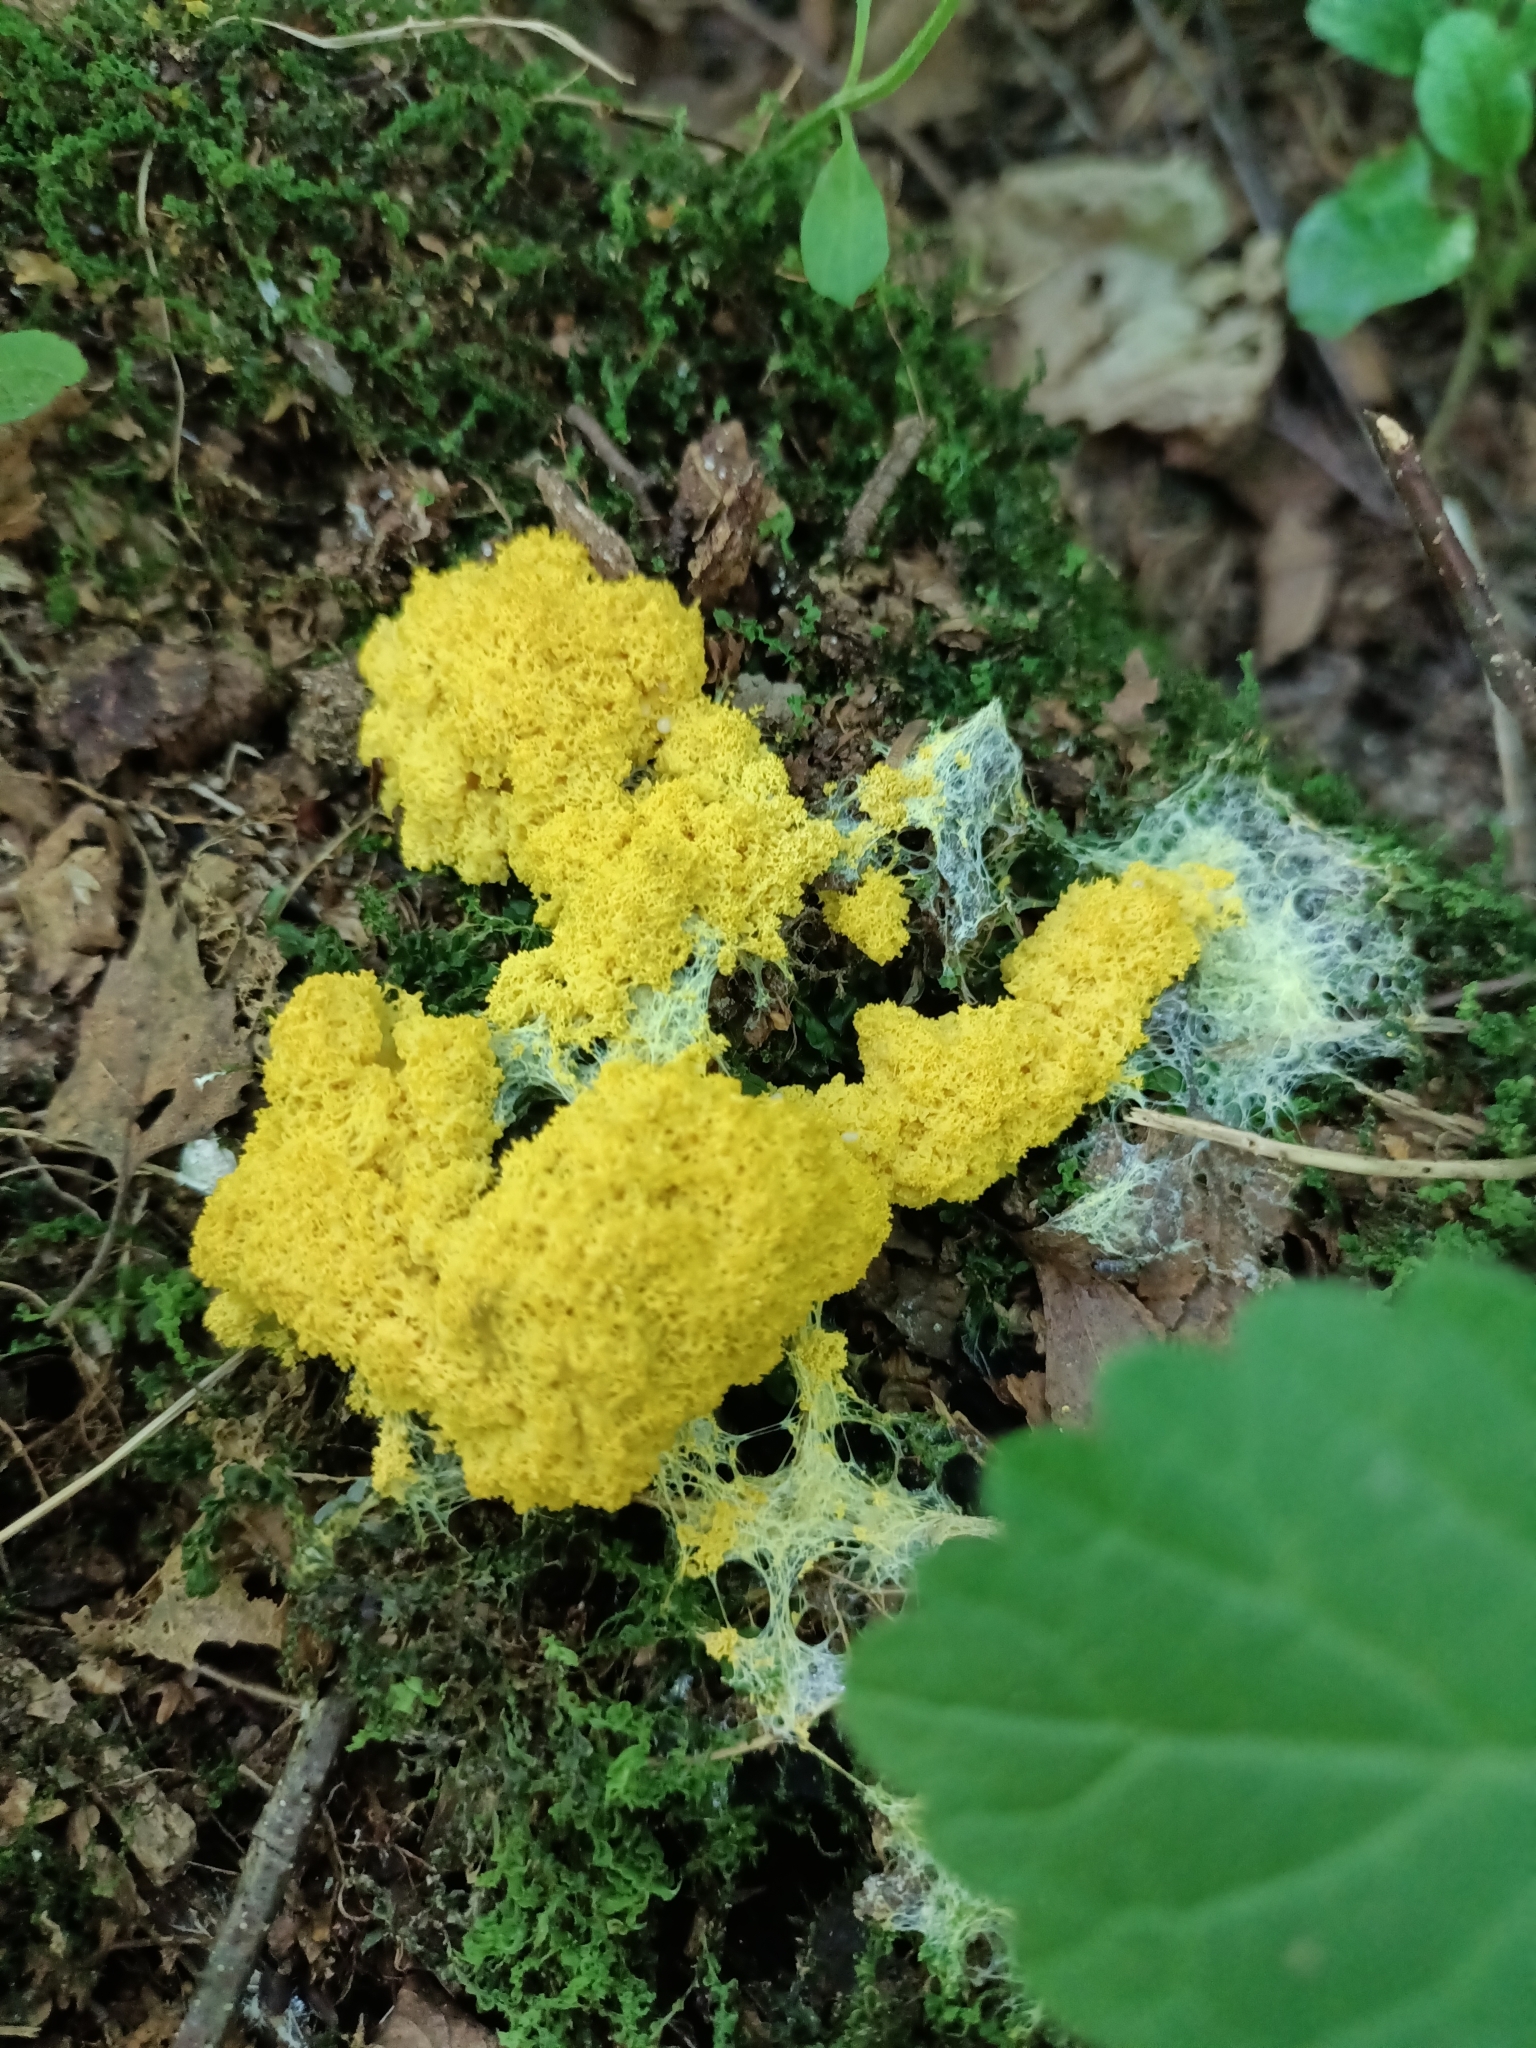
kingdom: Protozoa
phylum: Mycetozoa
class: Myxomycetes
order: Physarales
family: Physaraceae
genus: Fuligo
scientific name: Fuligo septica
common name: Dog vomit slime mold
